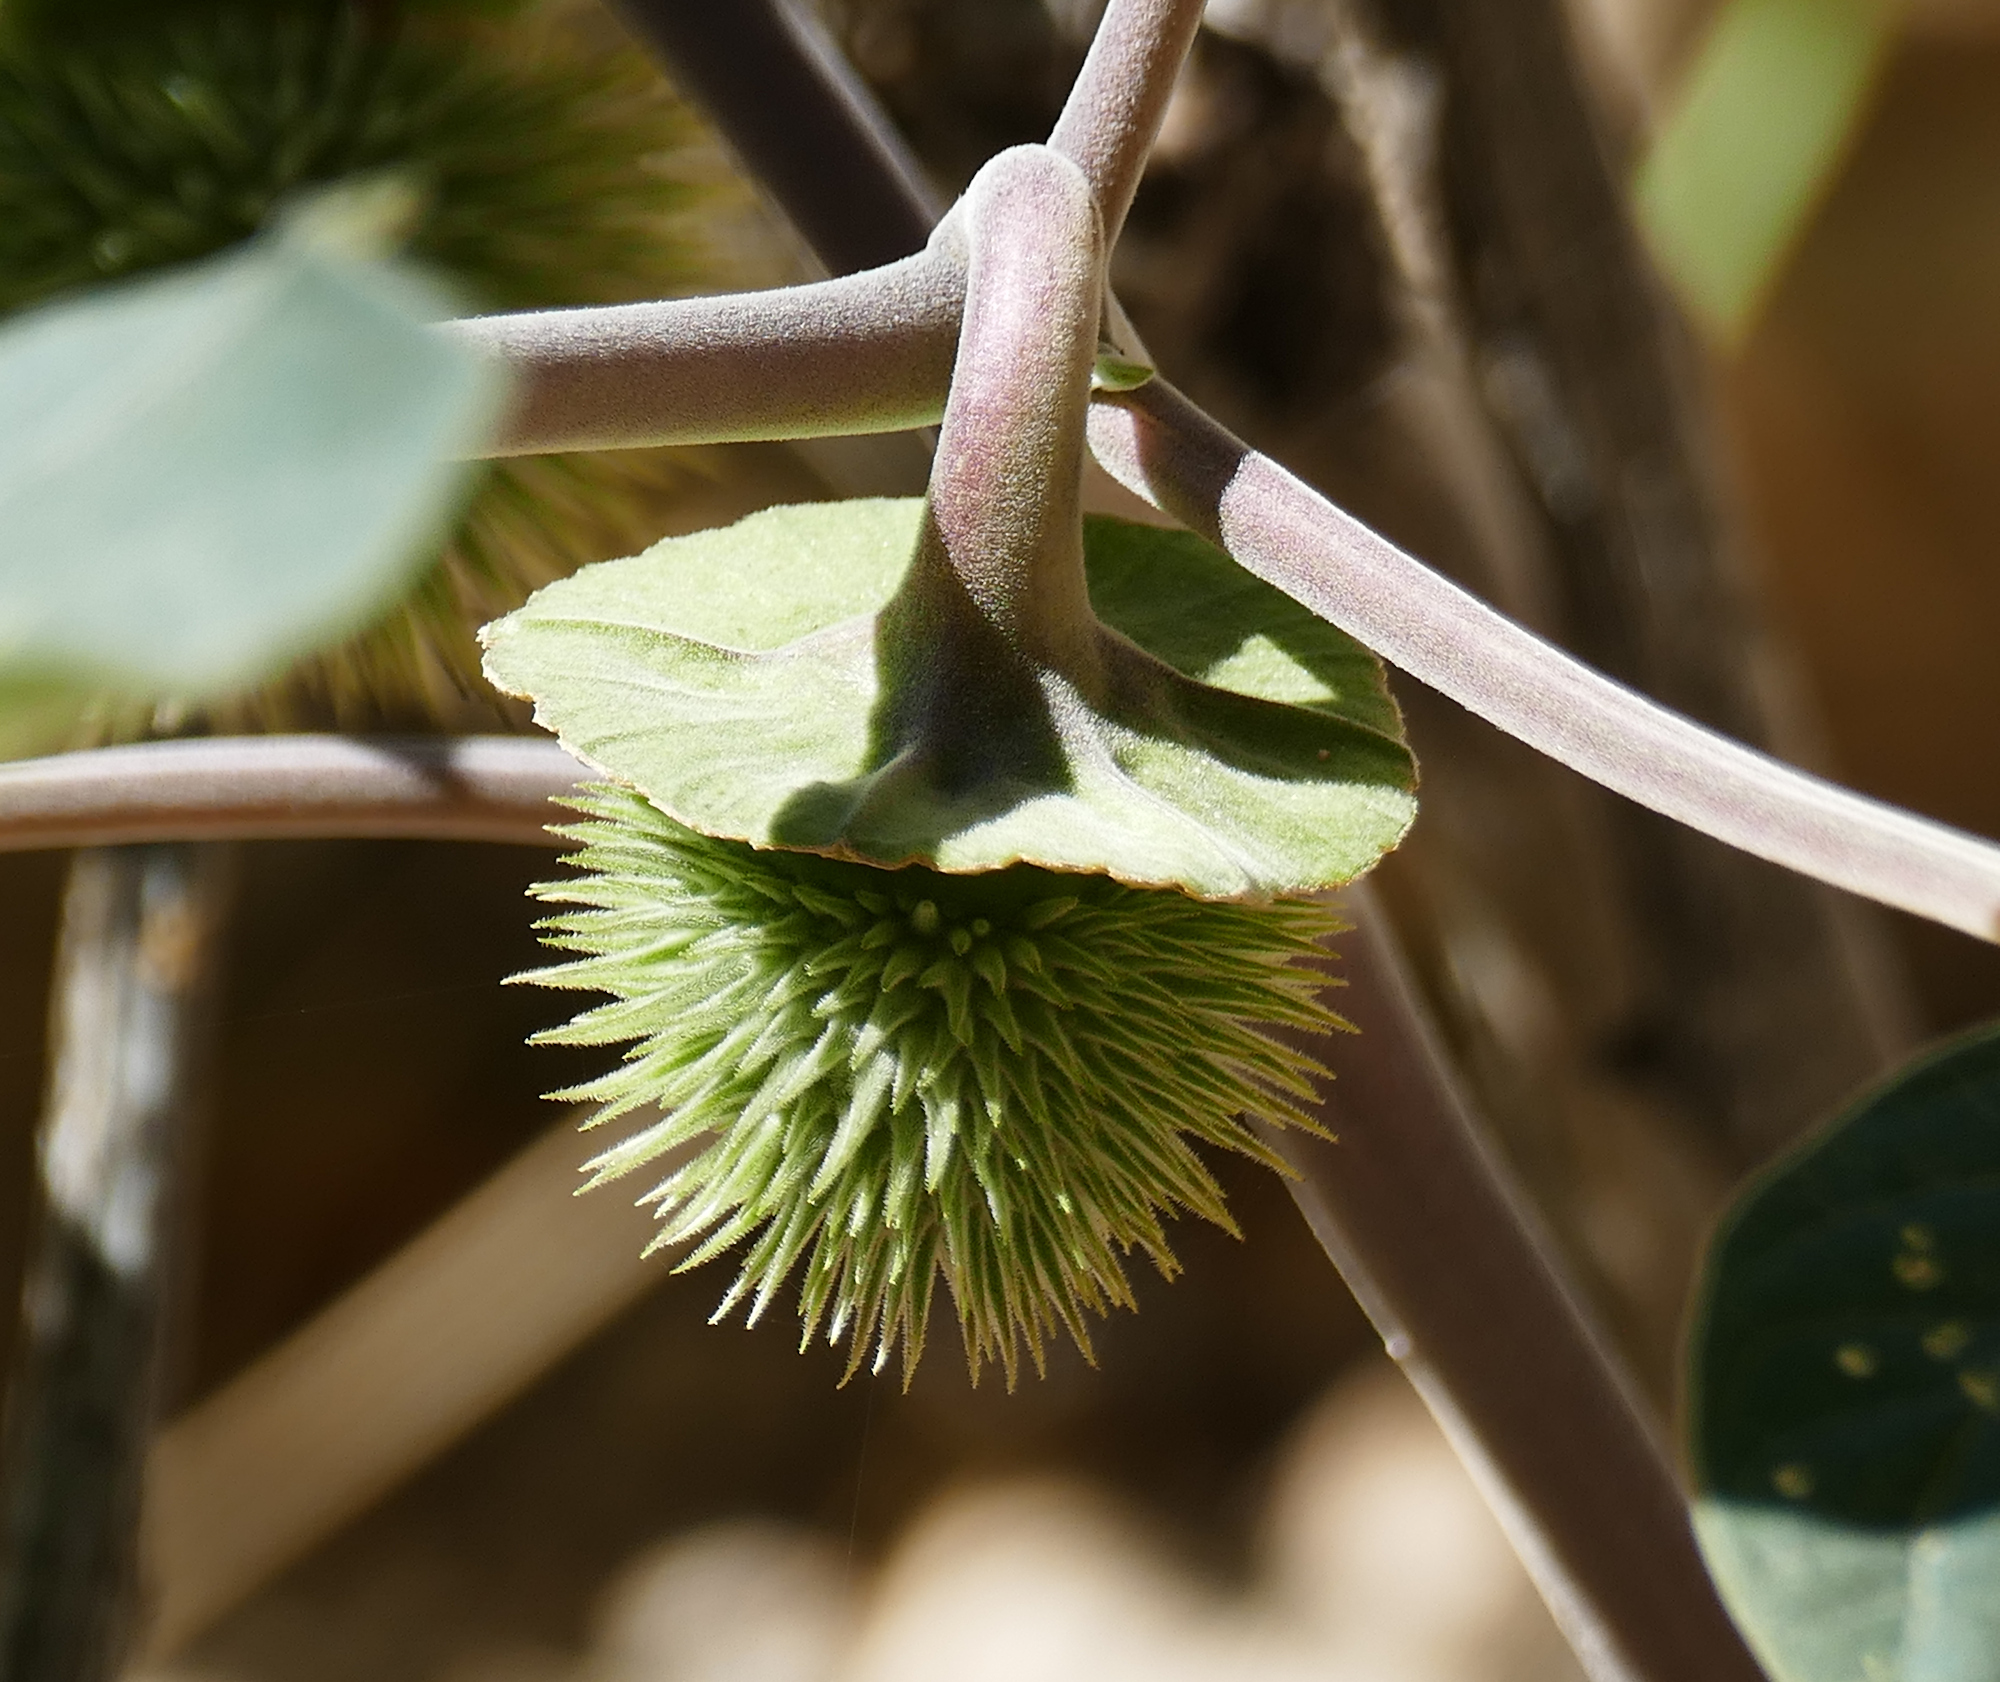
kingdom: Plantae
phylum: Tracheophyta
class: Magnoliopsida
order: Solanales
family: Solanaceae
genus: Datura
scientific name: Datura wrightii
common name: Sacred thorn-apple
